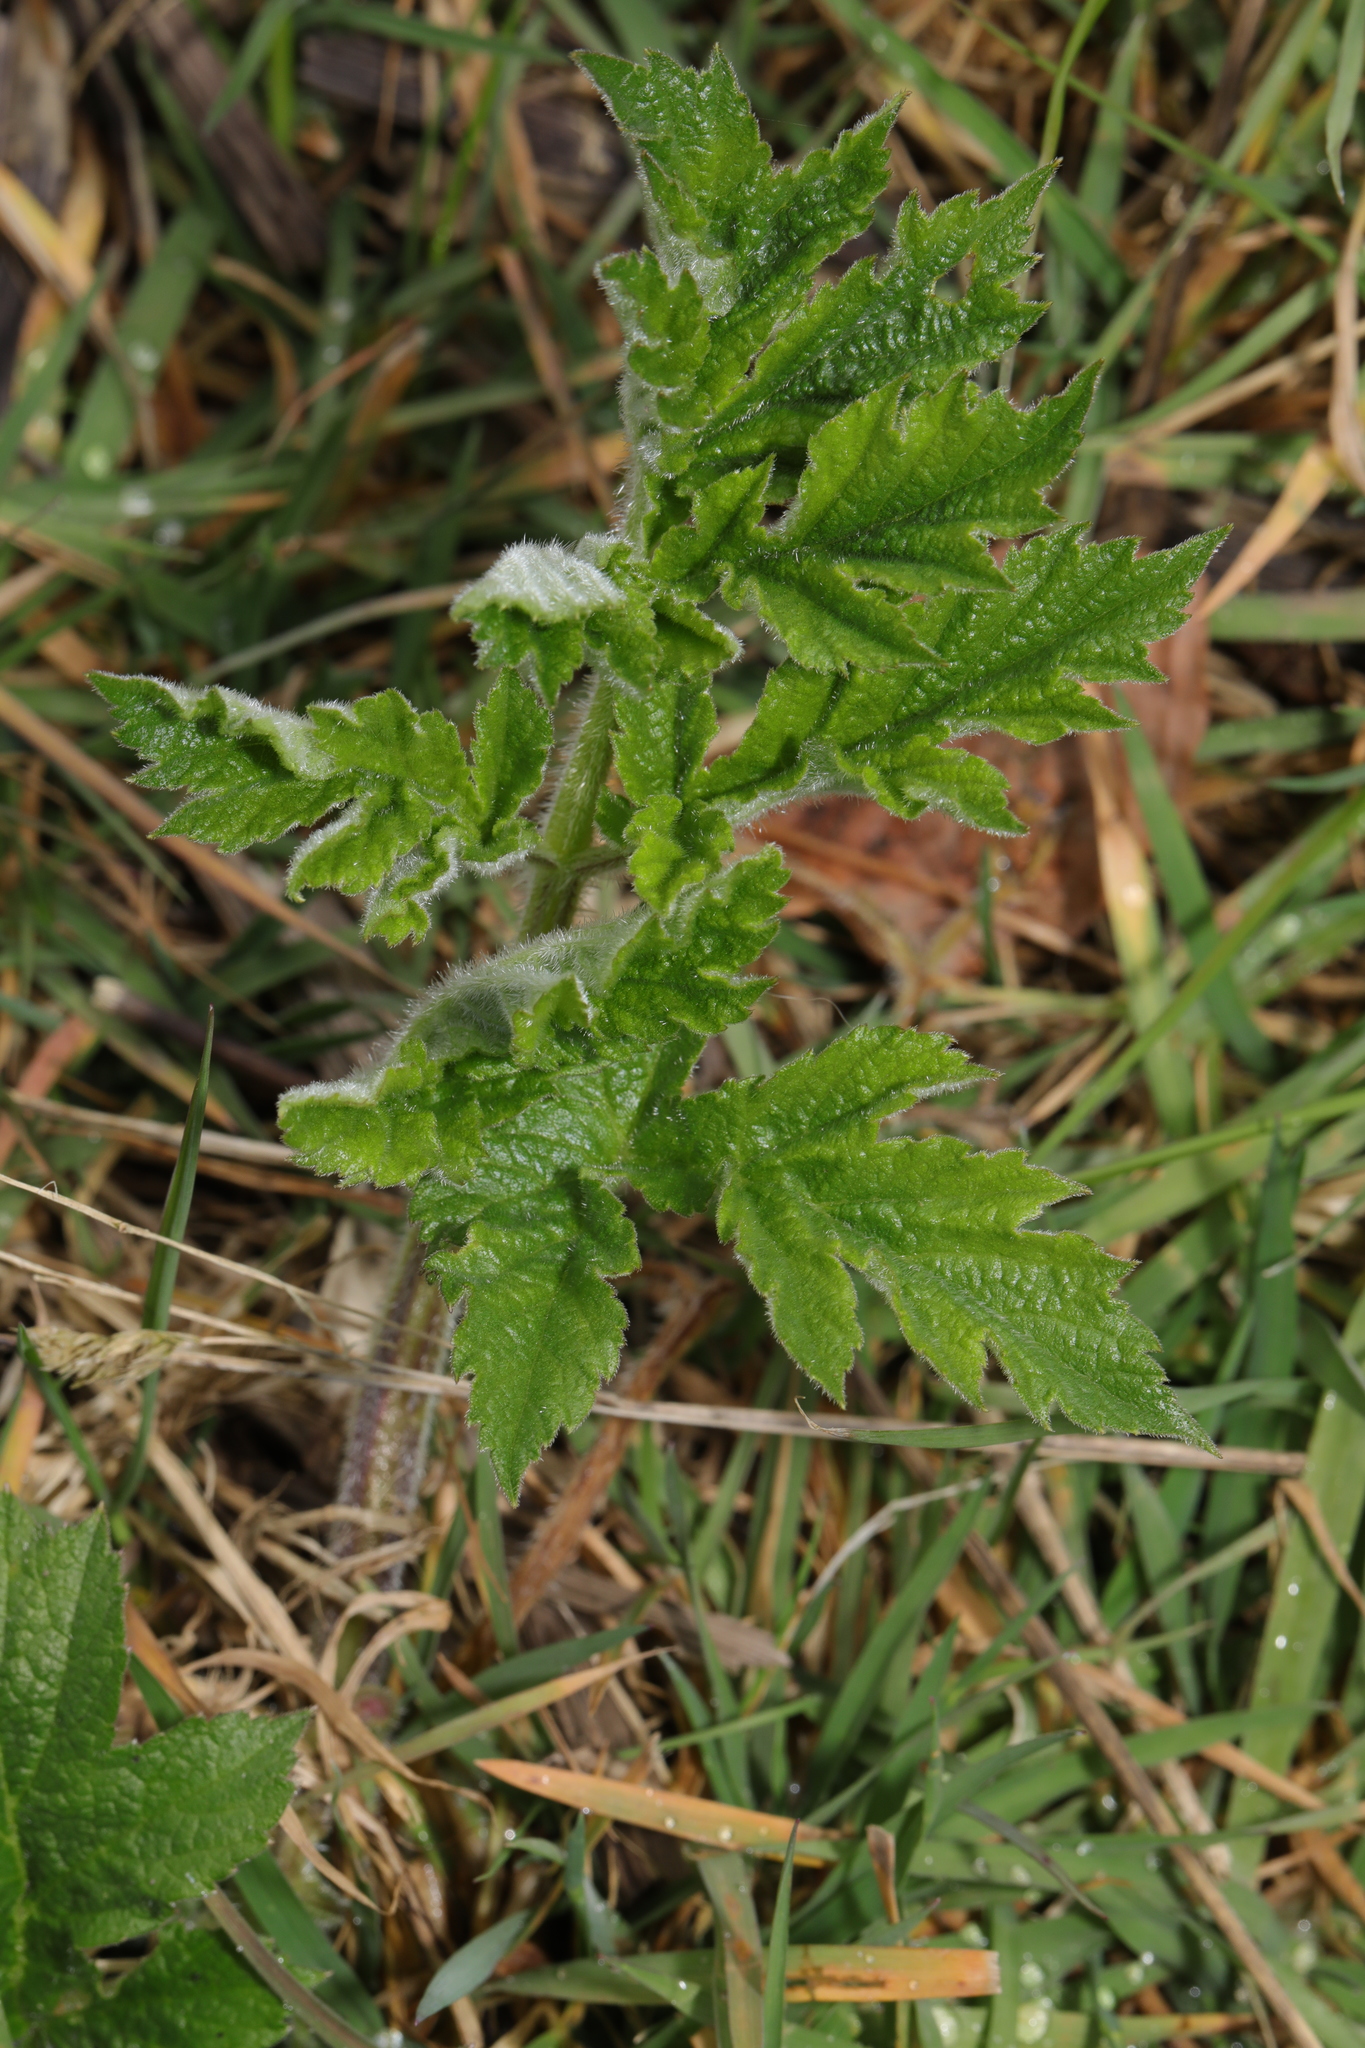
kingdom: Plantae
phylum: Tracheophyta
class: Magnoliopsida
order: Apiales
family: Apiaceae
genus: Heracleum
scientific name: Heracleum sphondylium
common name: Hogweed
